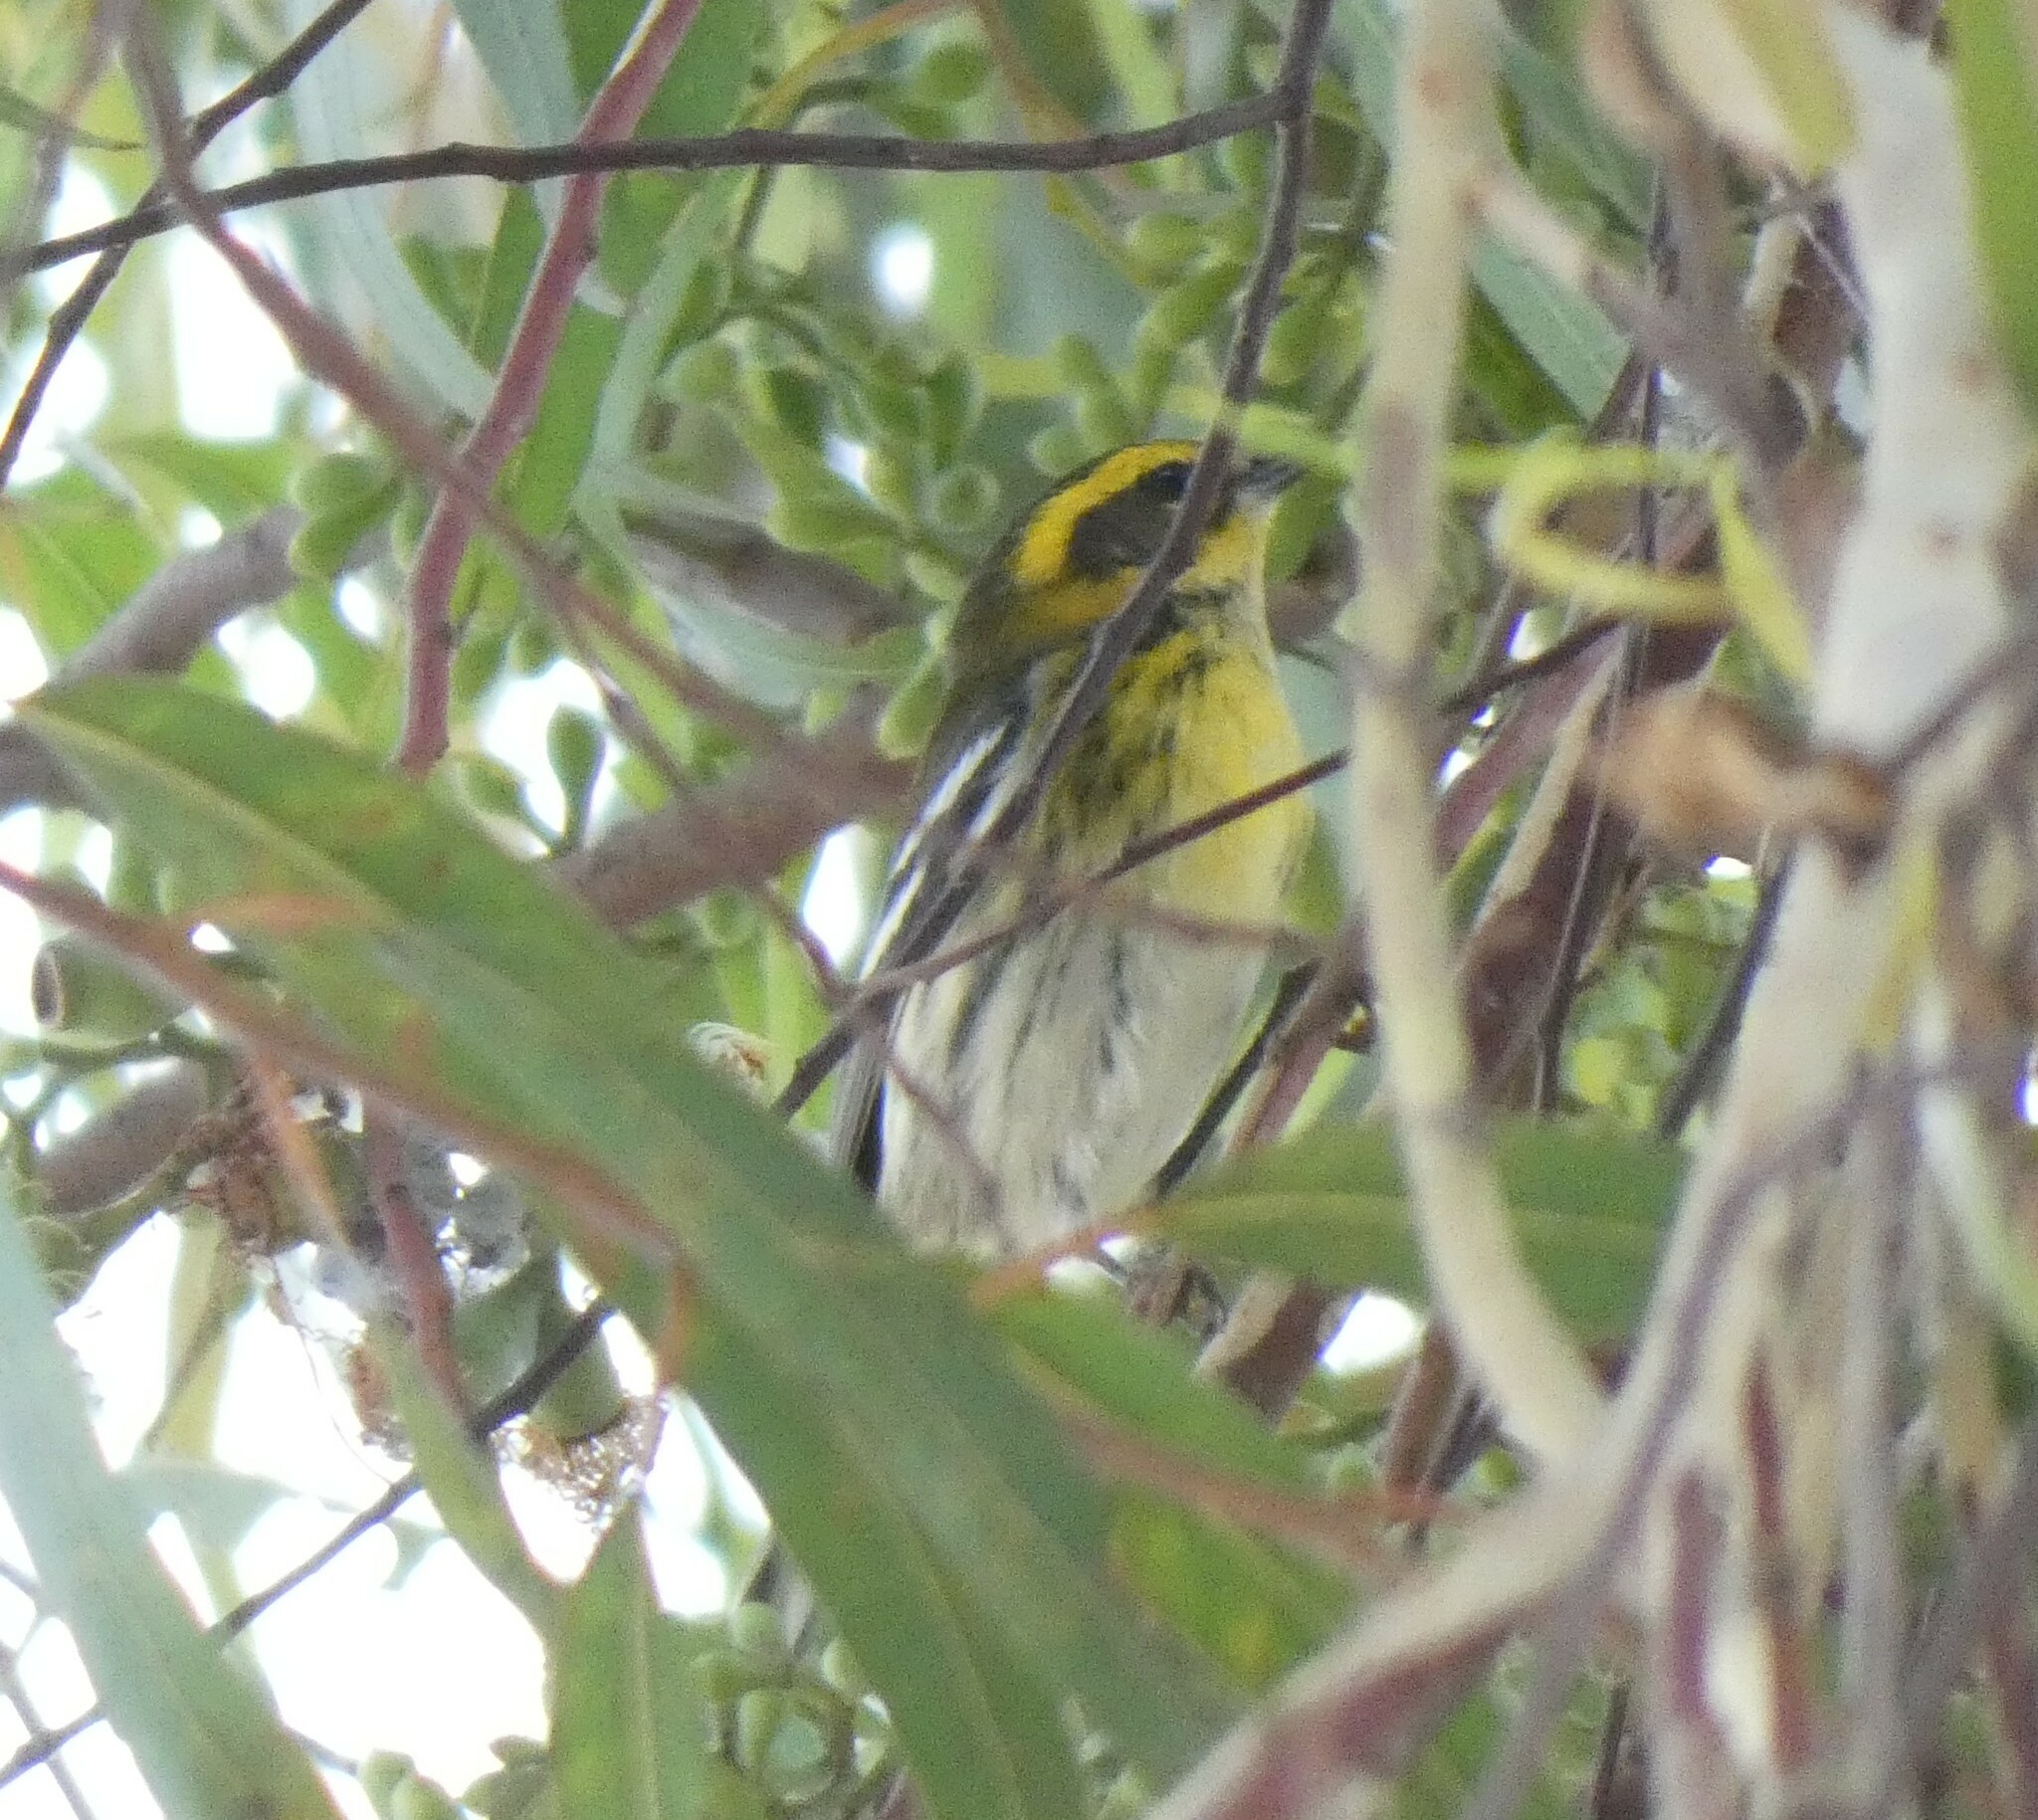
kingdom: Animalia
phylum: Chordata
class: Aves
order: Passeriformes
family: Parulidae
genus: Setophaga
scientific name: Setophaga townsendi
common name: Townsend's warbler
